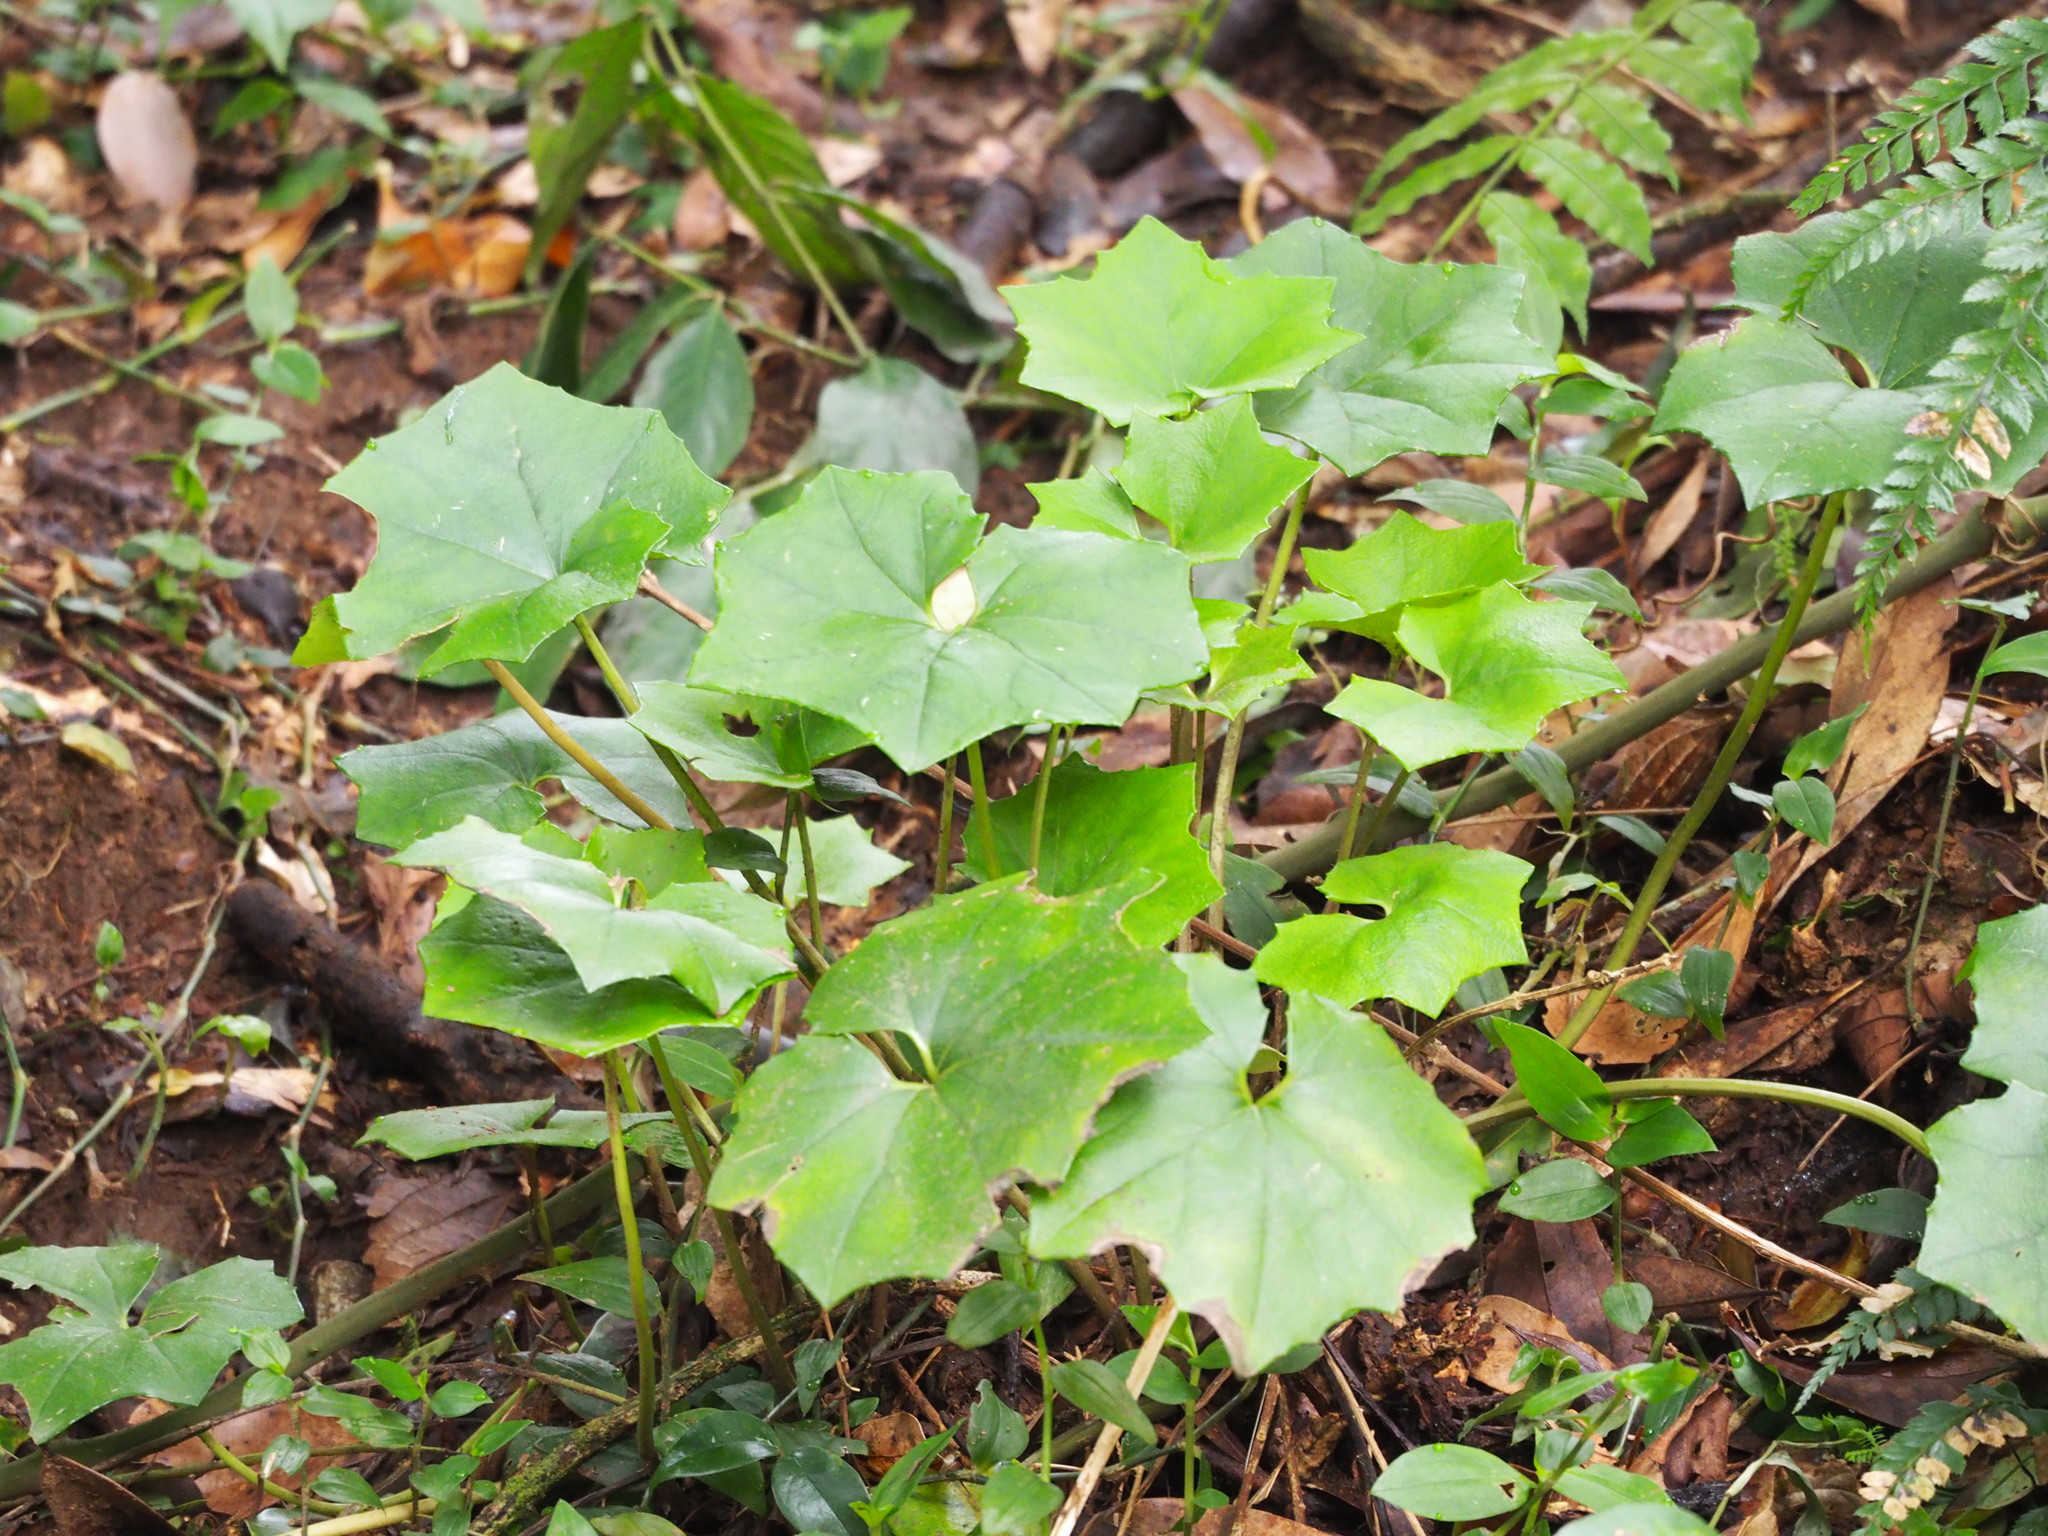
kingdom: Plantae
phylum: Tracheophyta
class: Magnoliopsida
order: Asterales
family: Asteraceae
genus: Farfugium
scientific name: Farfugium japonicum
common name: Leopardplant
